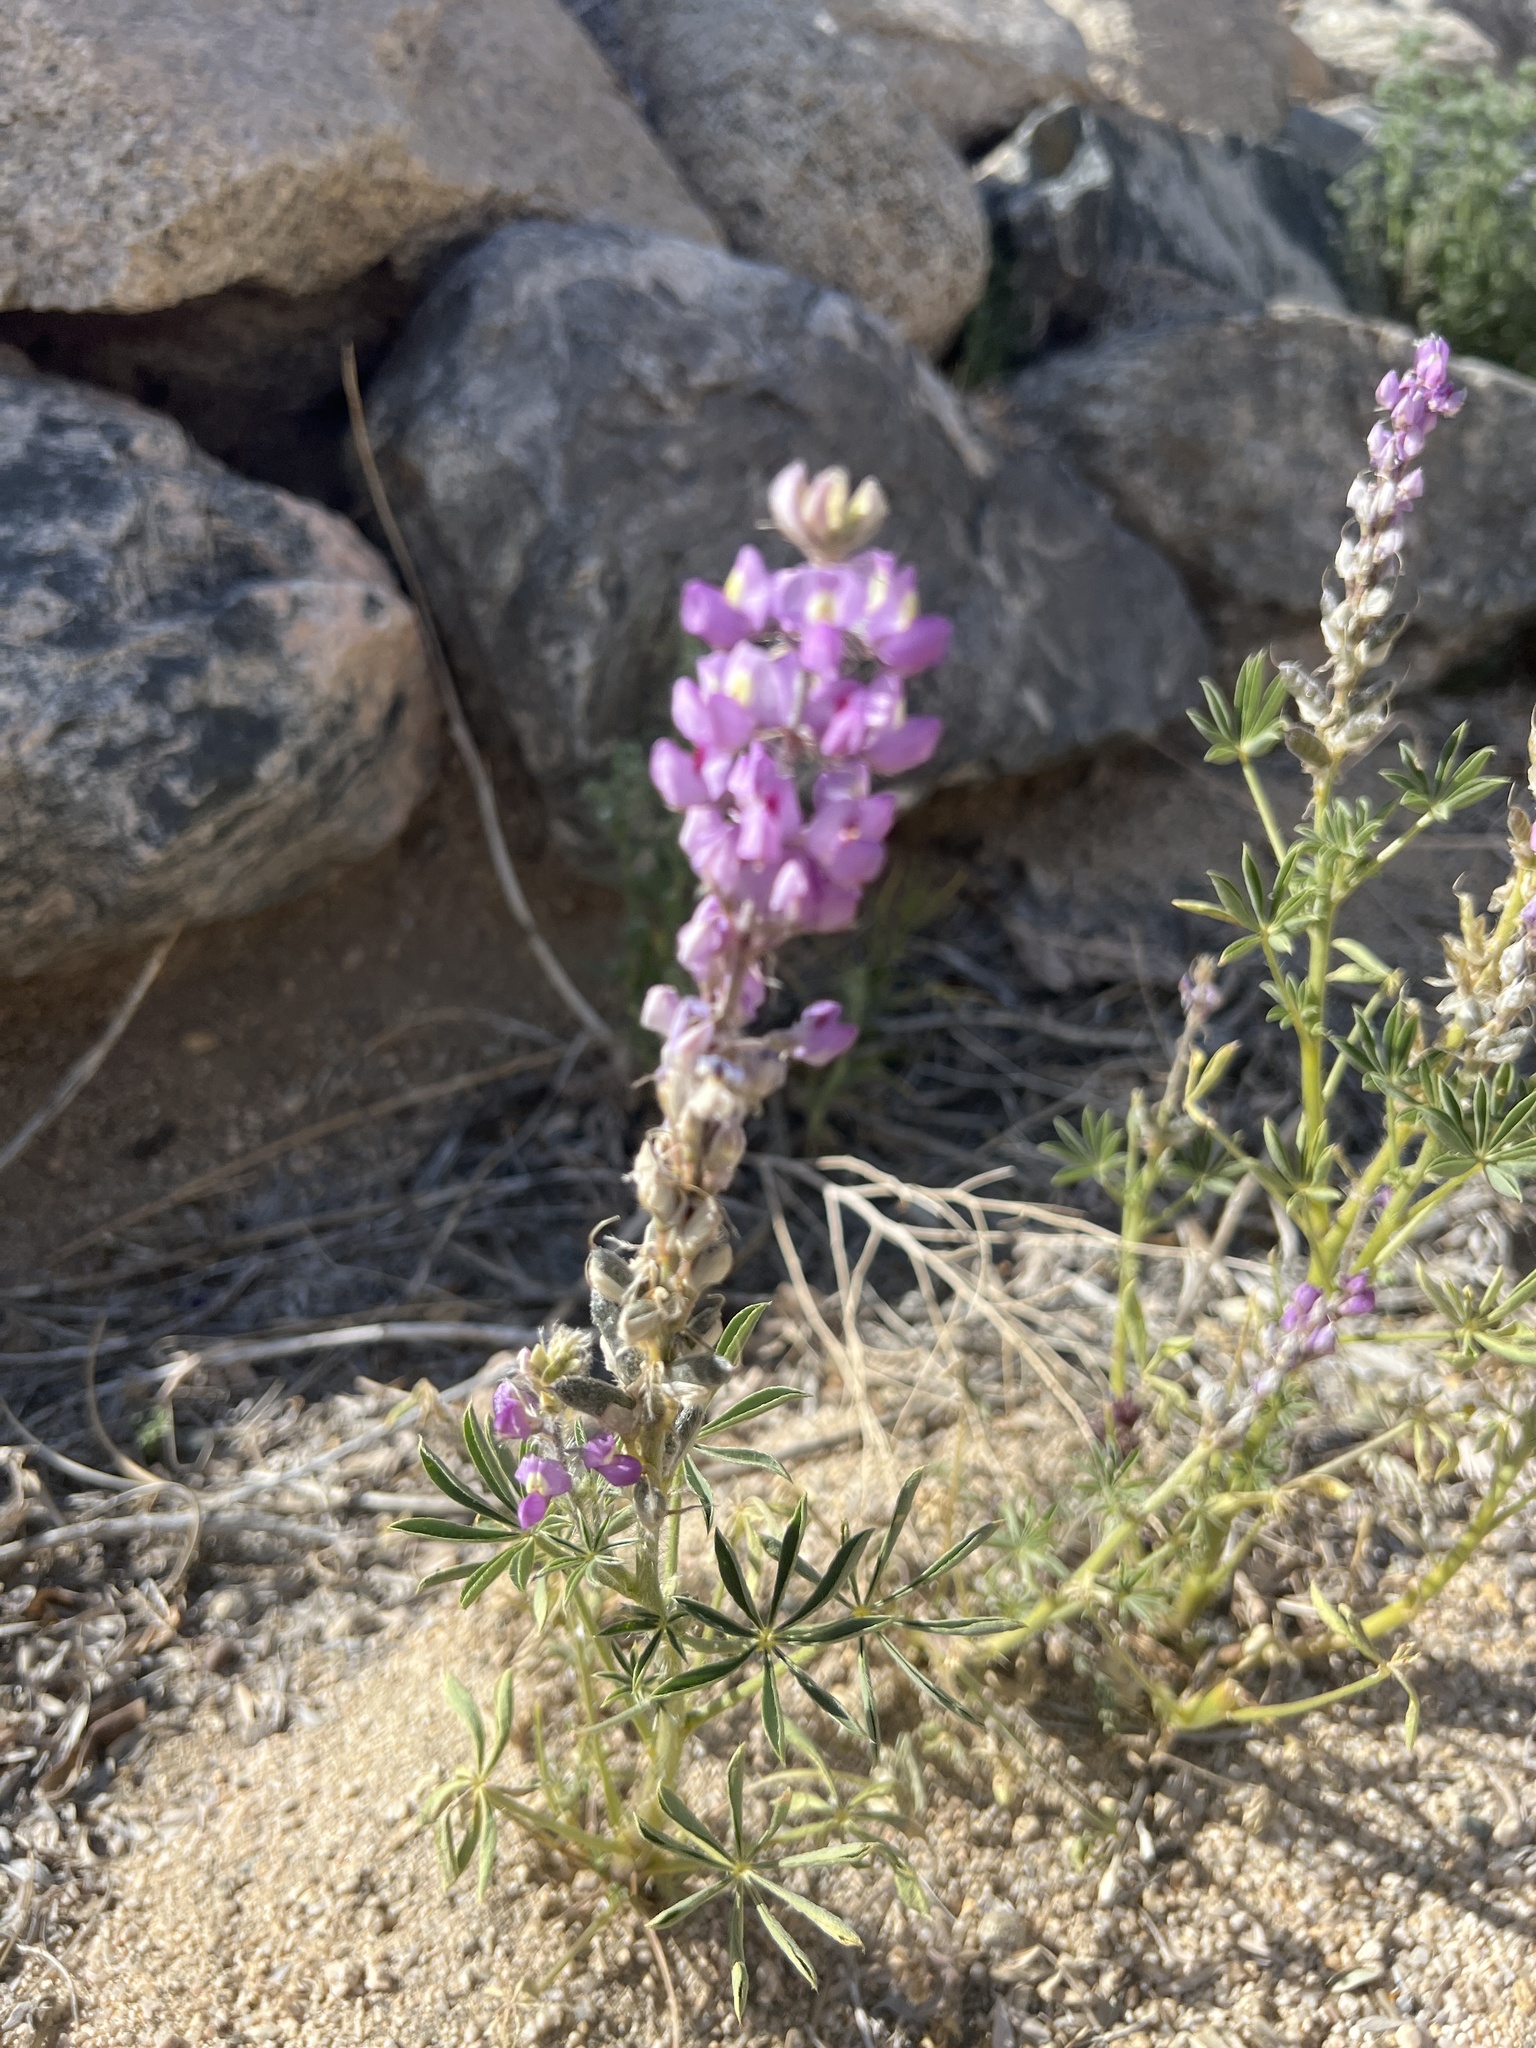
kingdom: Plantae
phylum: Tracheophyta
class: Magnoliopsida
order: Fabales
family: Fabaceae
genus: Lupinus
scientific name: Lupinus arizonicus
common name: Arizona lupine
